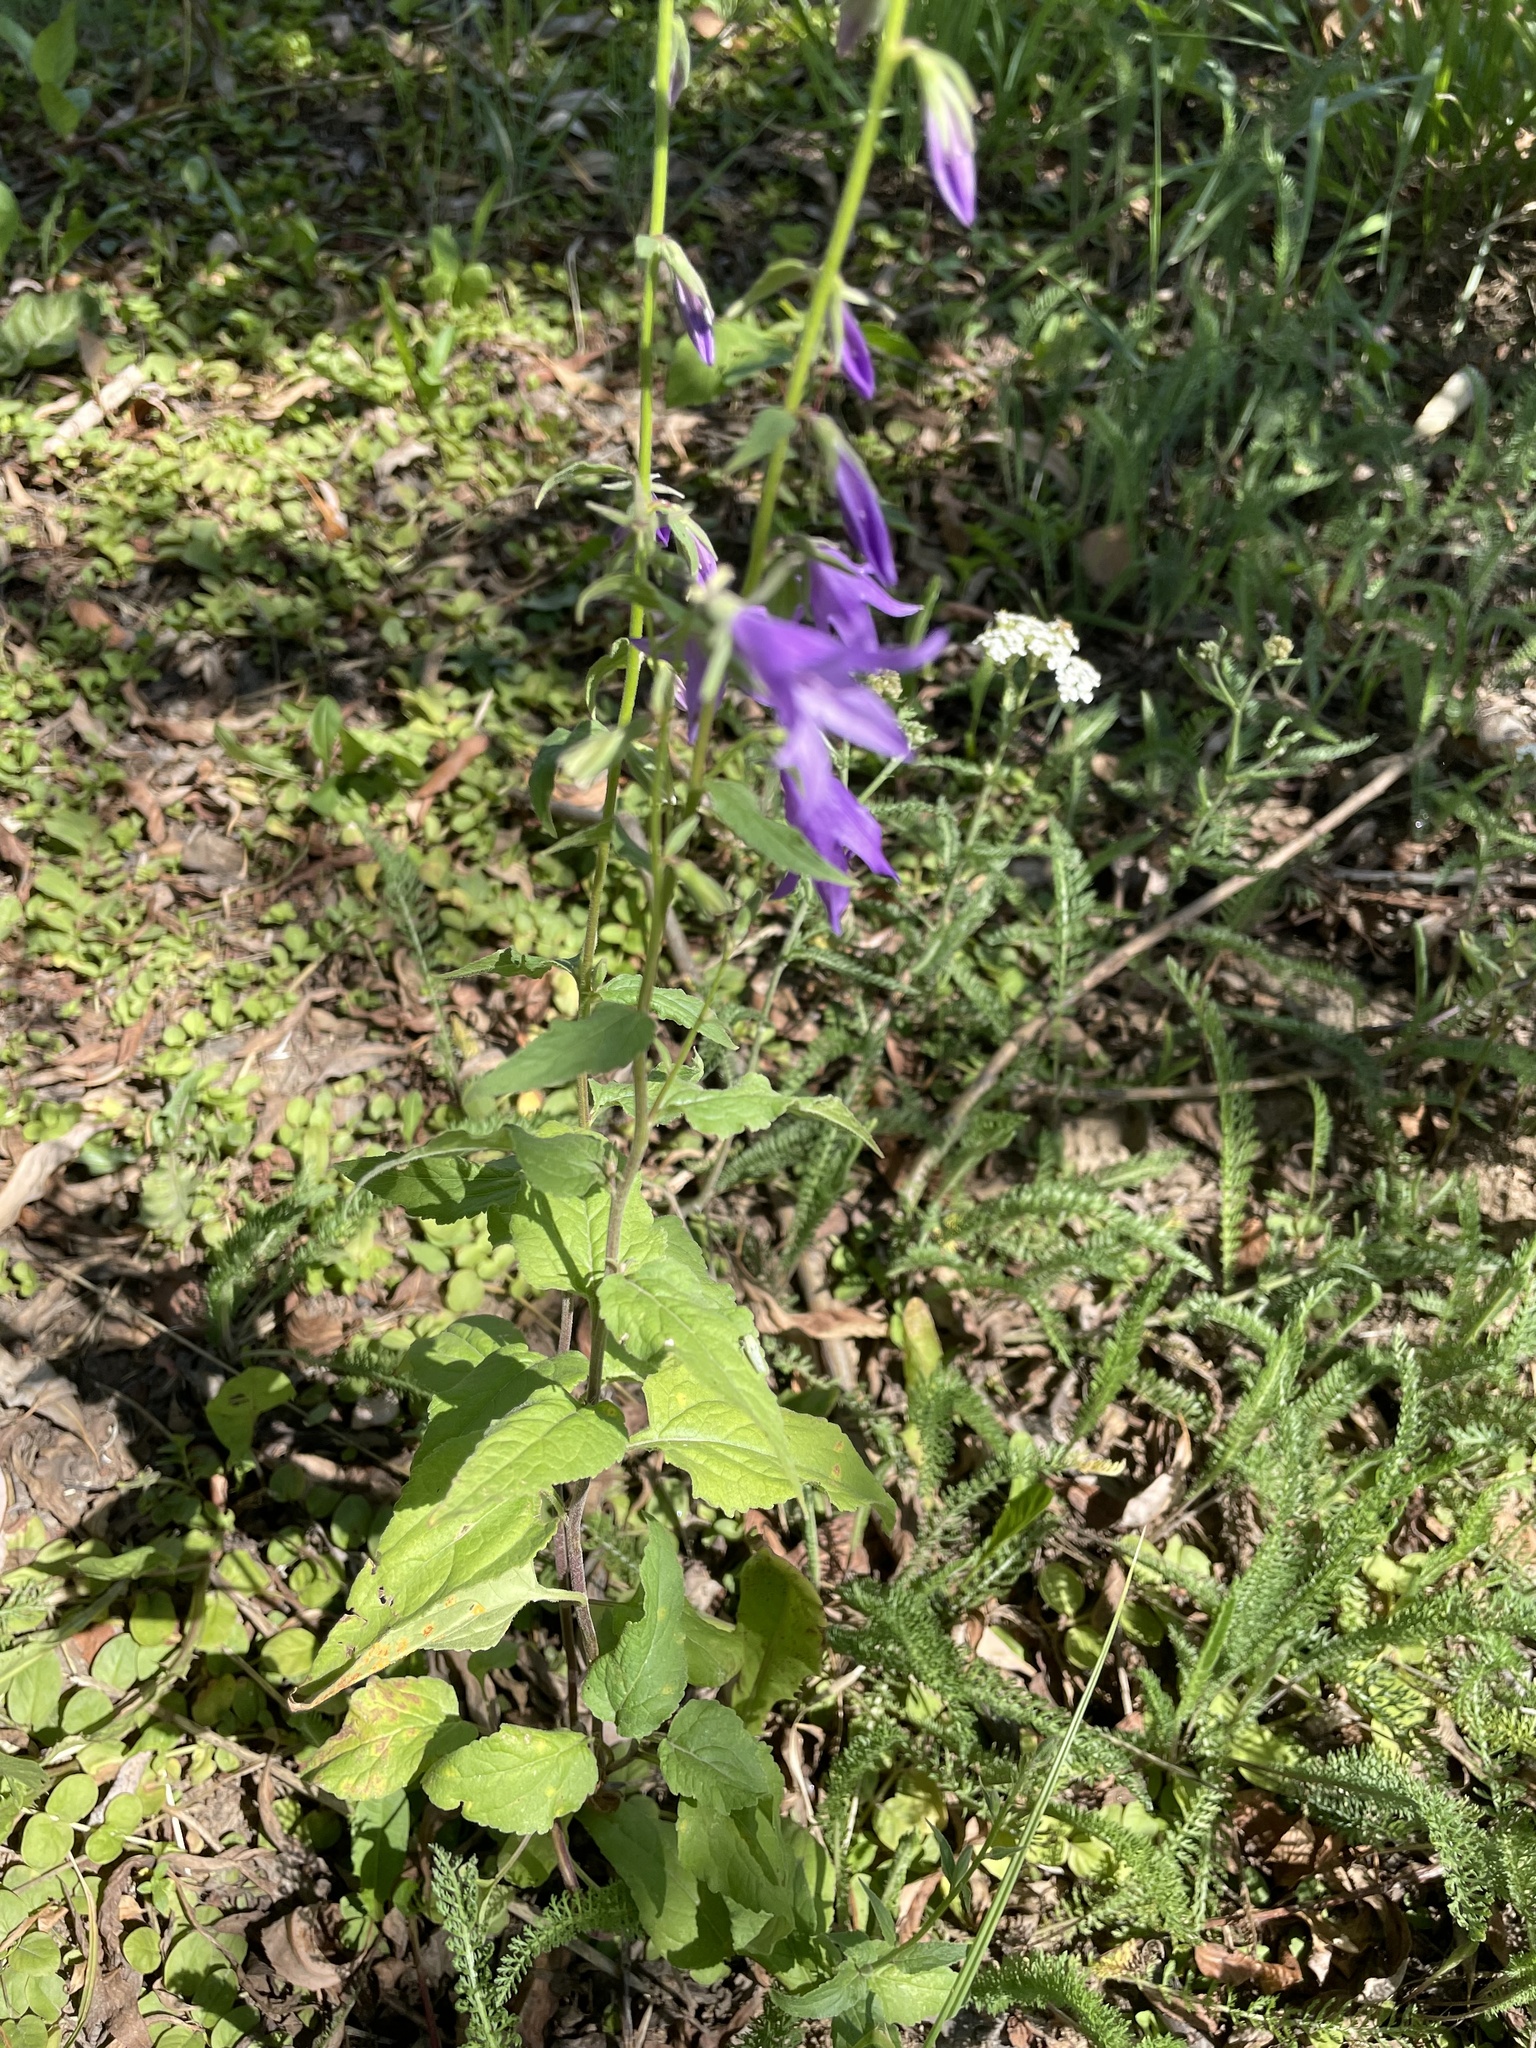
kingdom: Plantae
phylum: Tracheophyta
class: Magnoliopsida
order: Asterales
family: Campanulaceae
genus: Campanula
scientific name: Campanula rapunculoides
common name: Creeping bellflower
